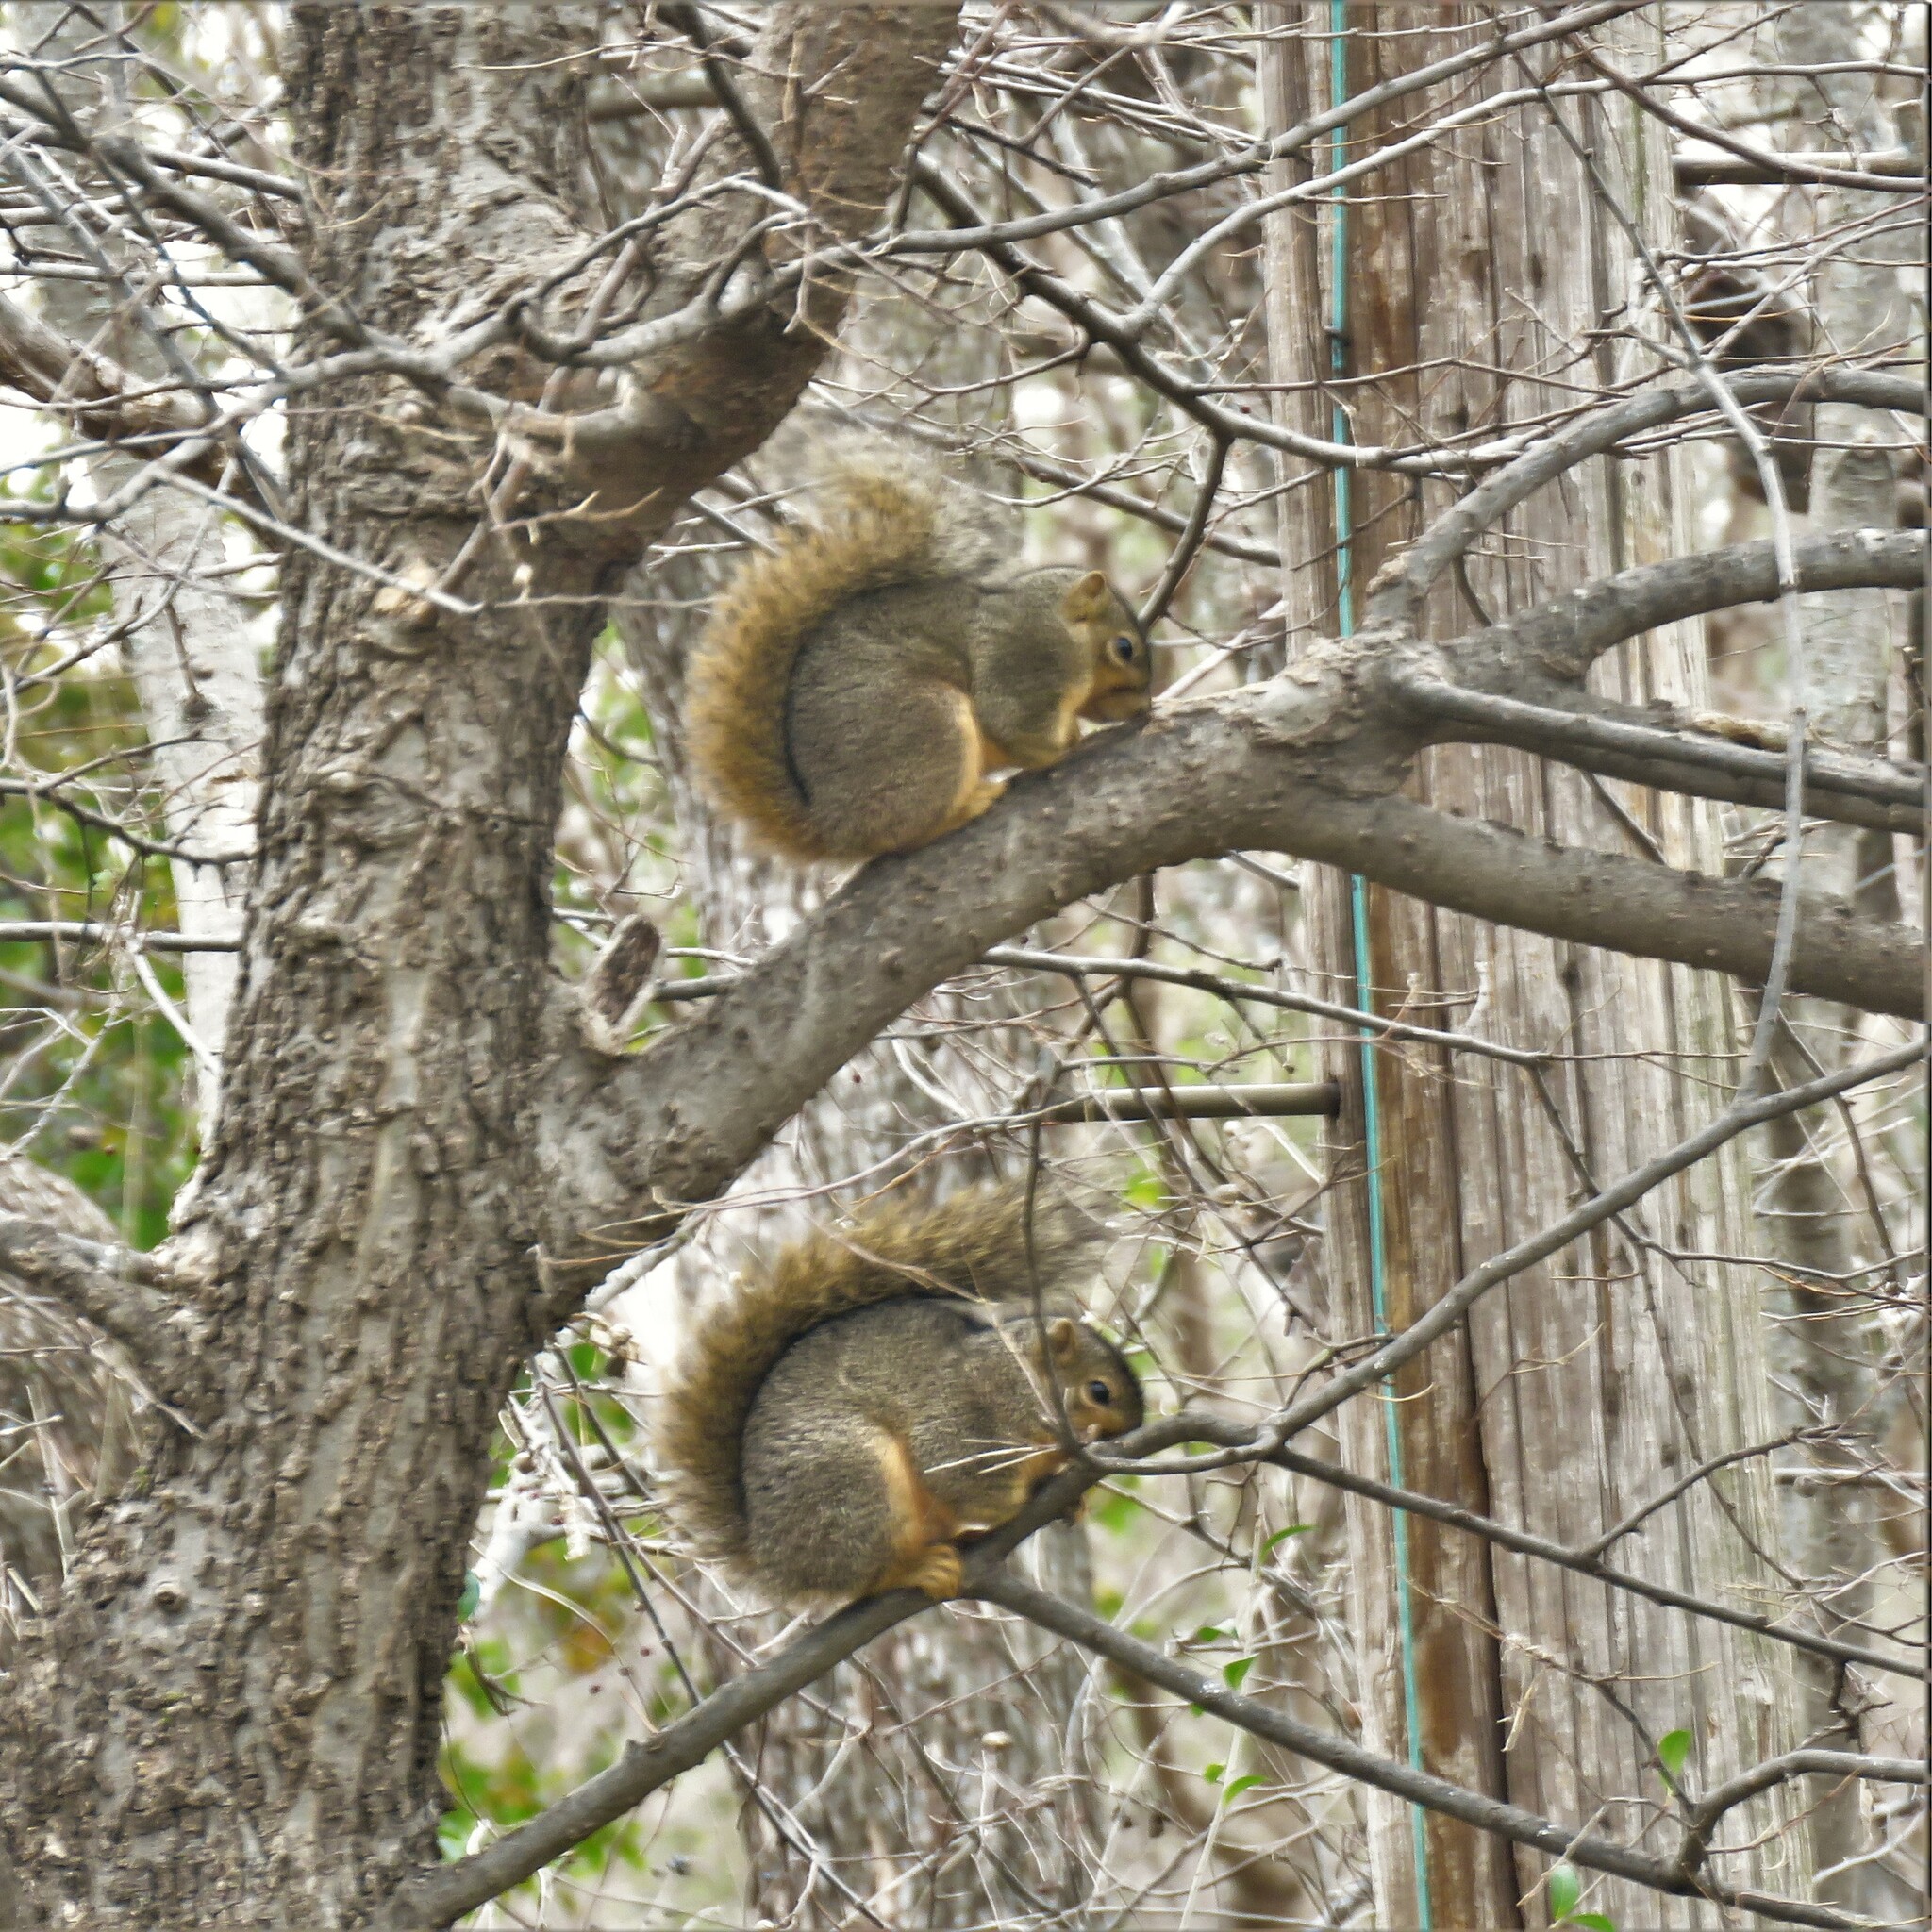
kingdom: Animalia
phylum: Chordata
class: Mammalia
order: Rodentia
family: Sciuridae
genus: Sciurus
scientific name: Sciurus niger
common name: Fox squirrel
